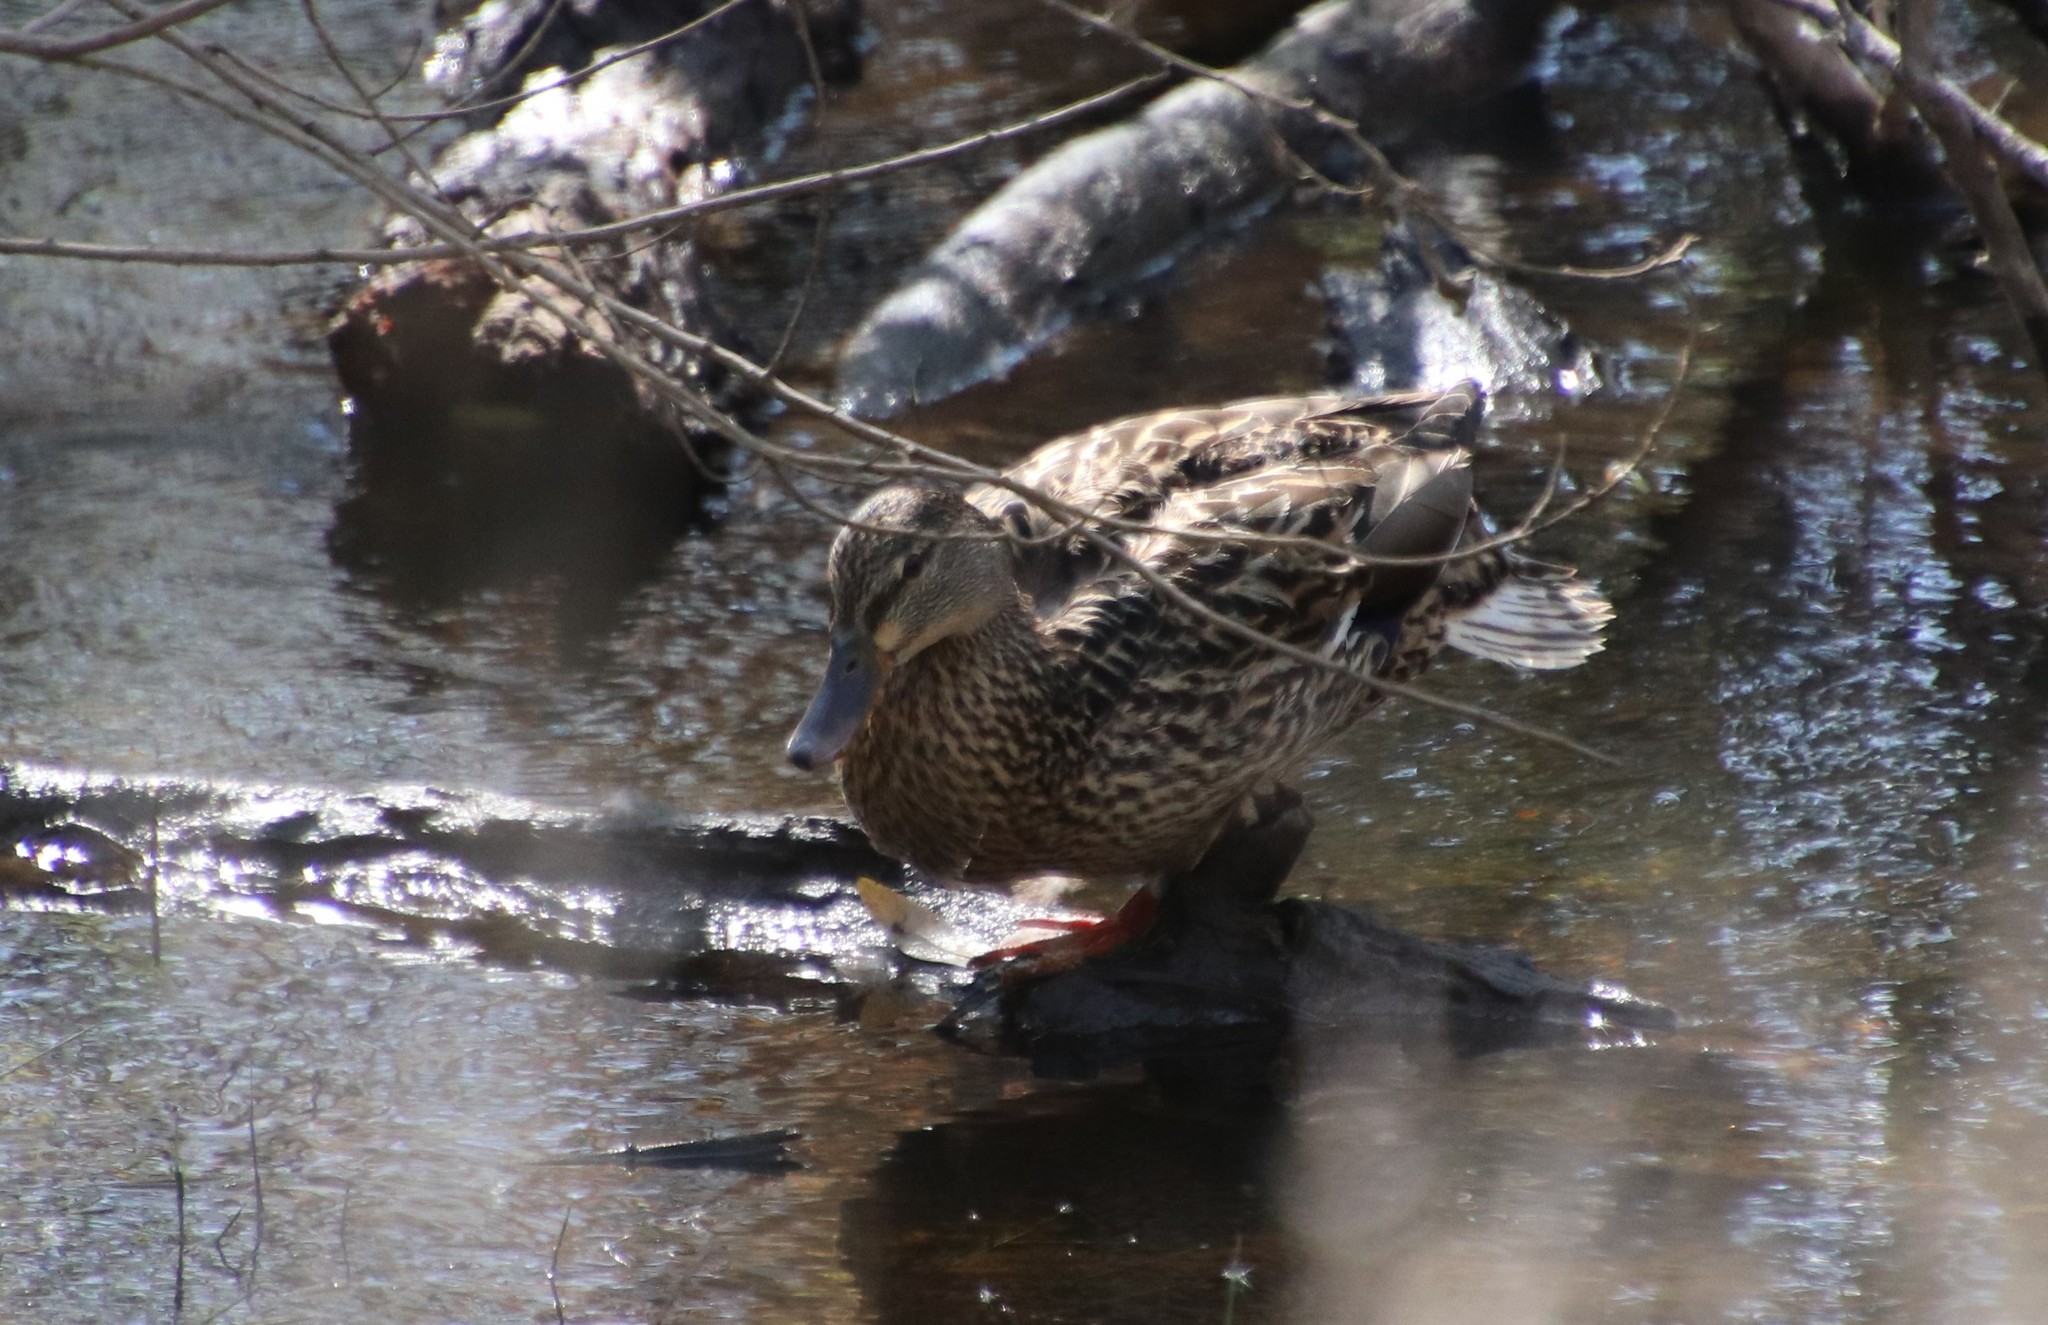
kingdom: Animalia
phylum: Chordata
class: Aves
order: Anseriformes
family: Anatidae
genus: Anas
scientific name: Anas platyrhynchos
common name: Mallard
